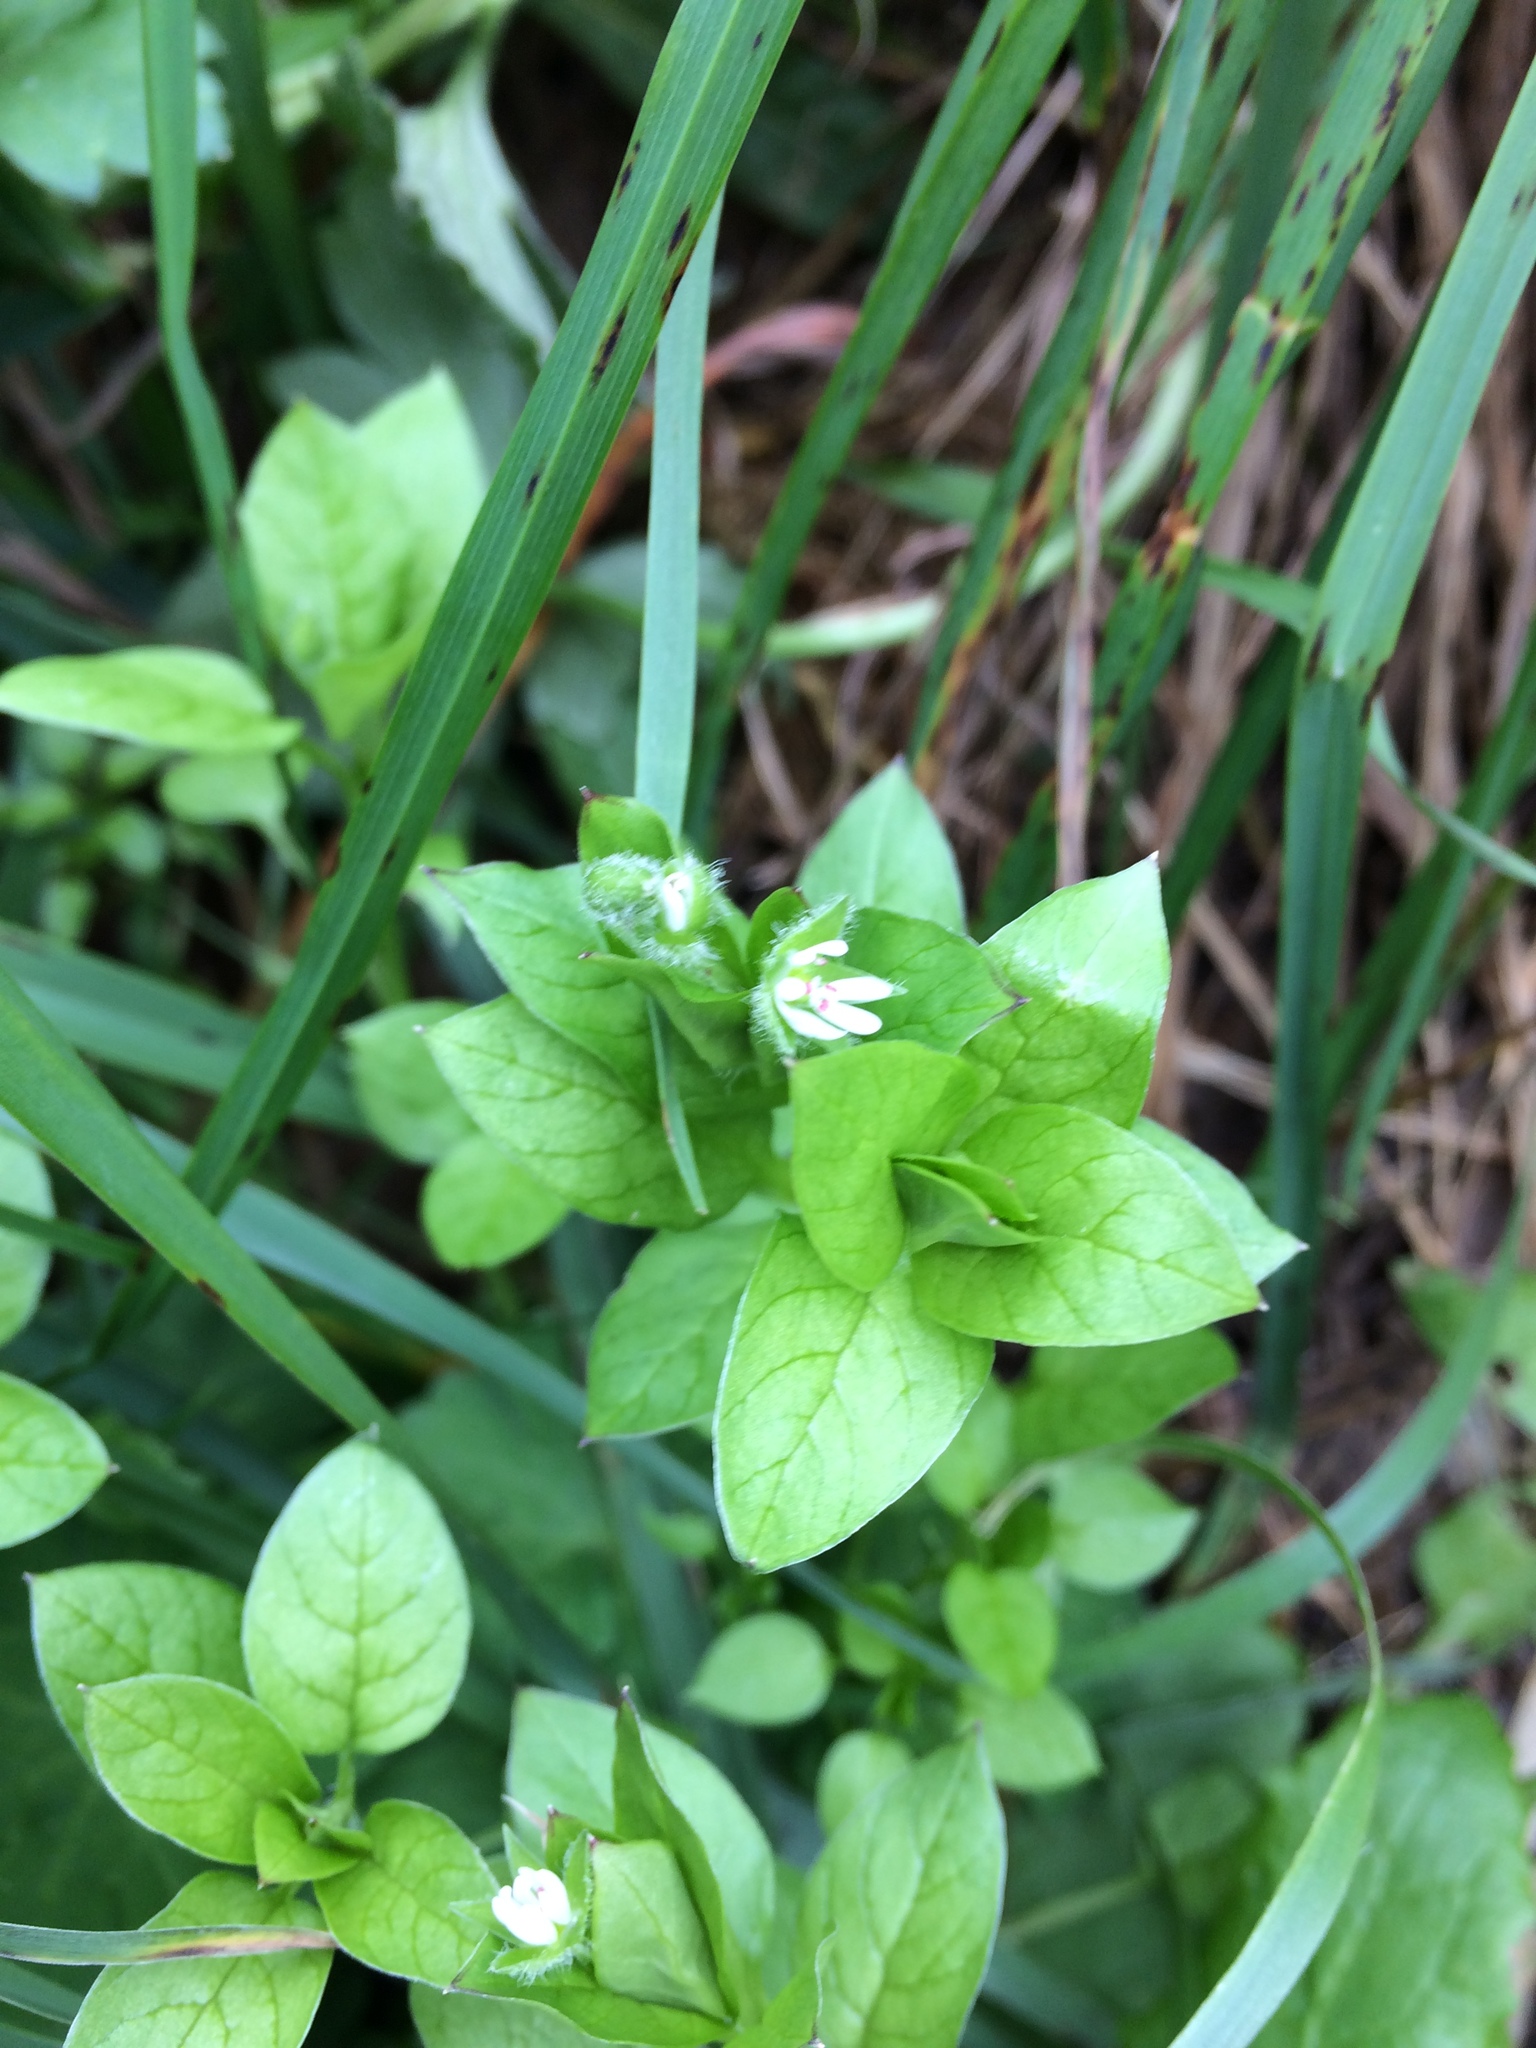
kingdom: Plantae
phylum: Tracheophyta
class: Magnoliopsida
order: Caryophyllales
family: Caryophyllaceae
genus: Stellaria
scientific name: Stellaria media
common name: Common chickweed
